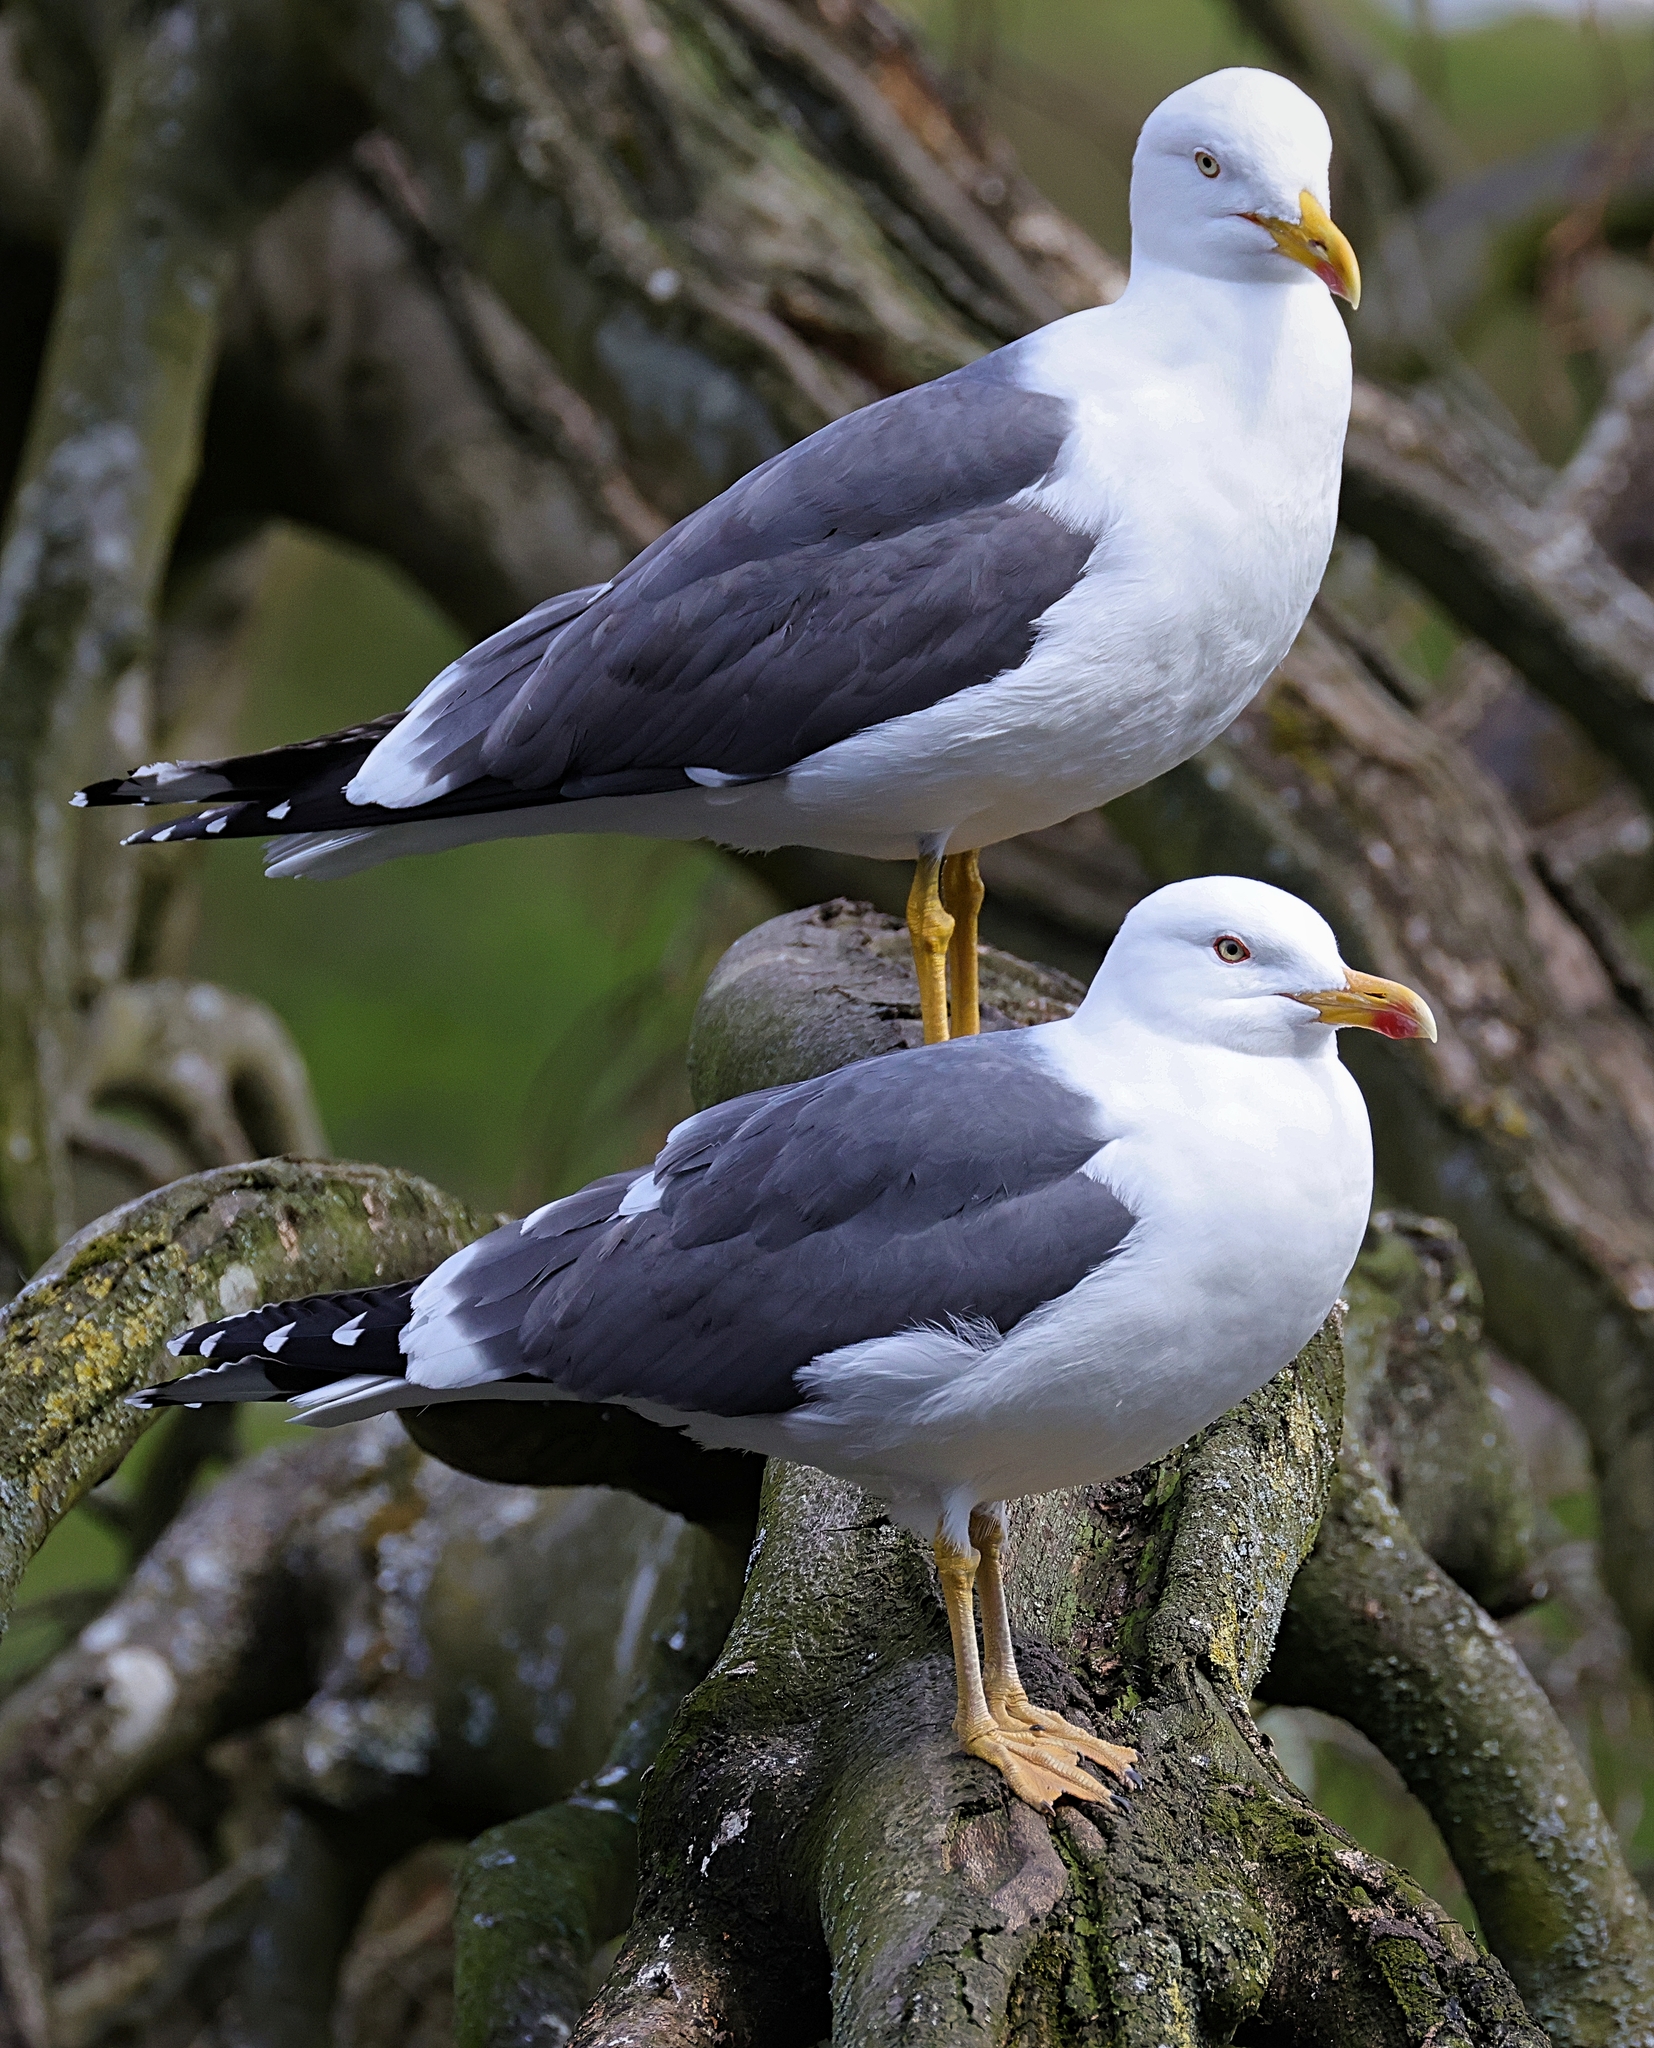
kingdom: Animalia
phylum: Chordata
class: Aves
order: Charadriiformes
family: Laridae
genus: Larus
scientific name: Larus fuscus
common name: Lesser black-backed gull
